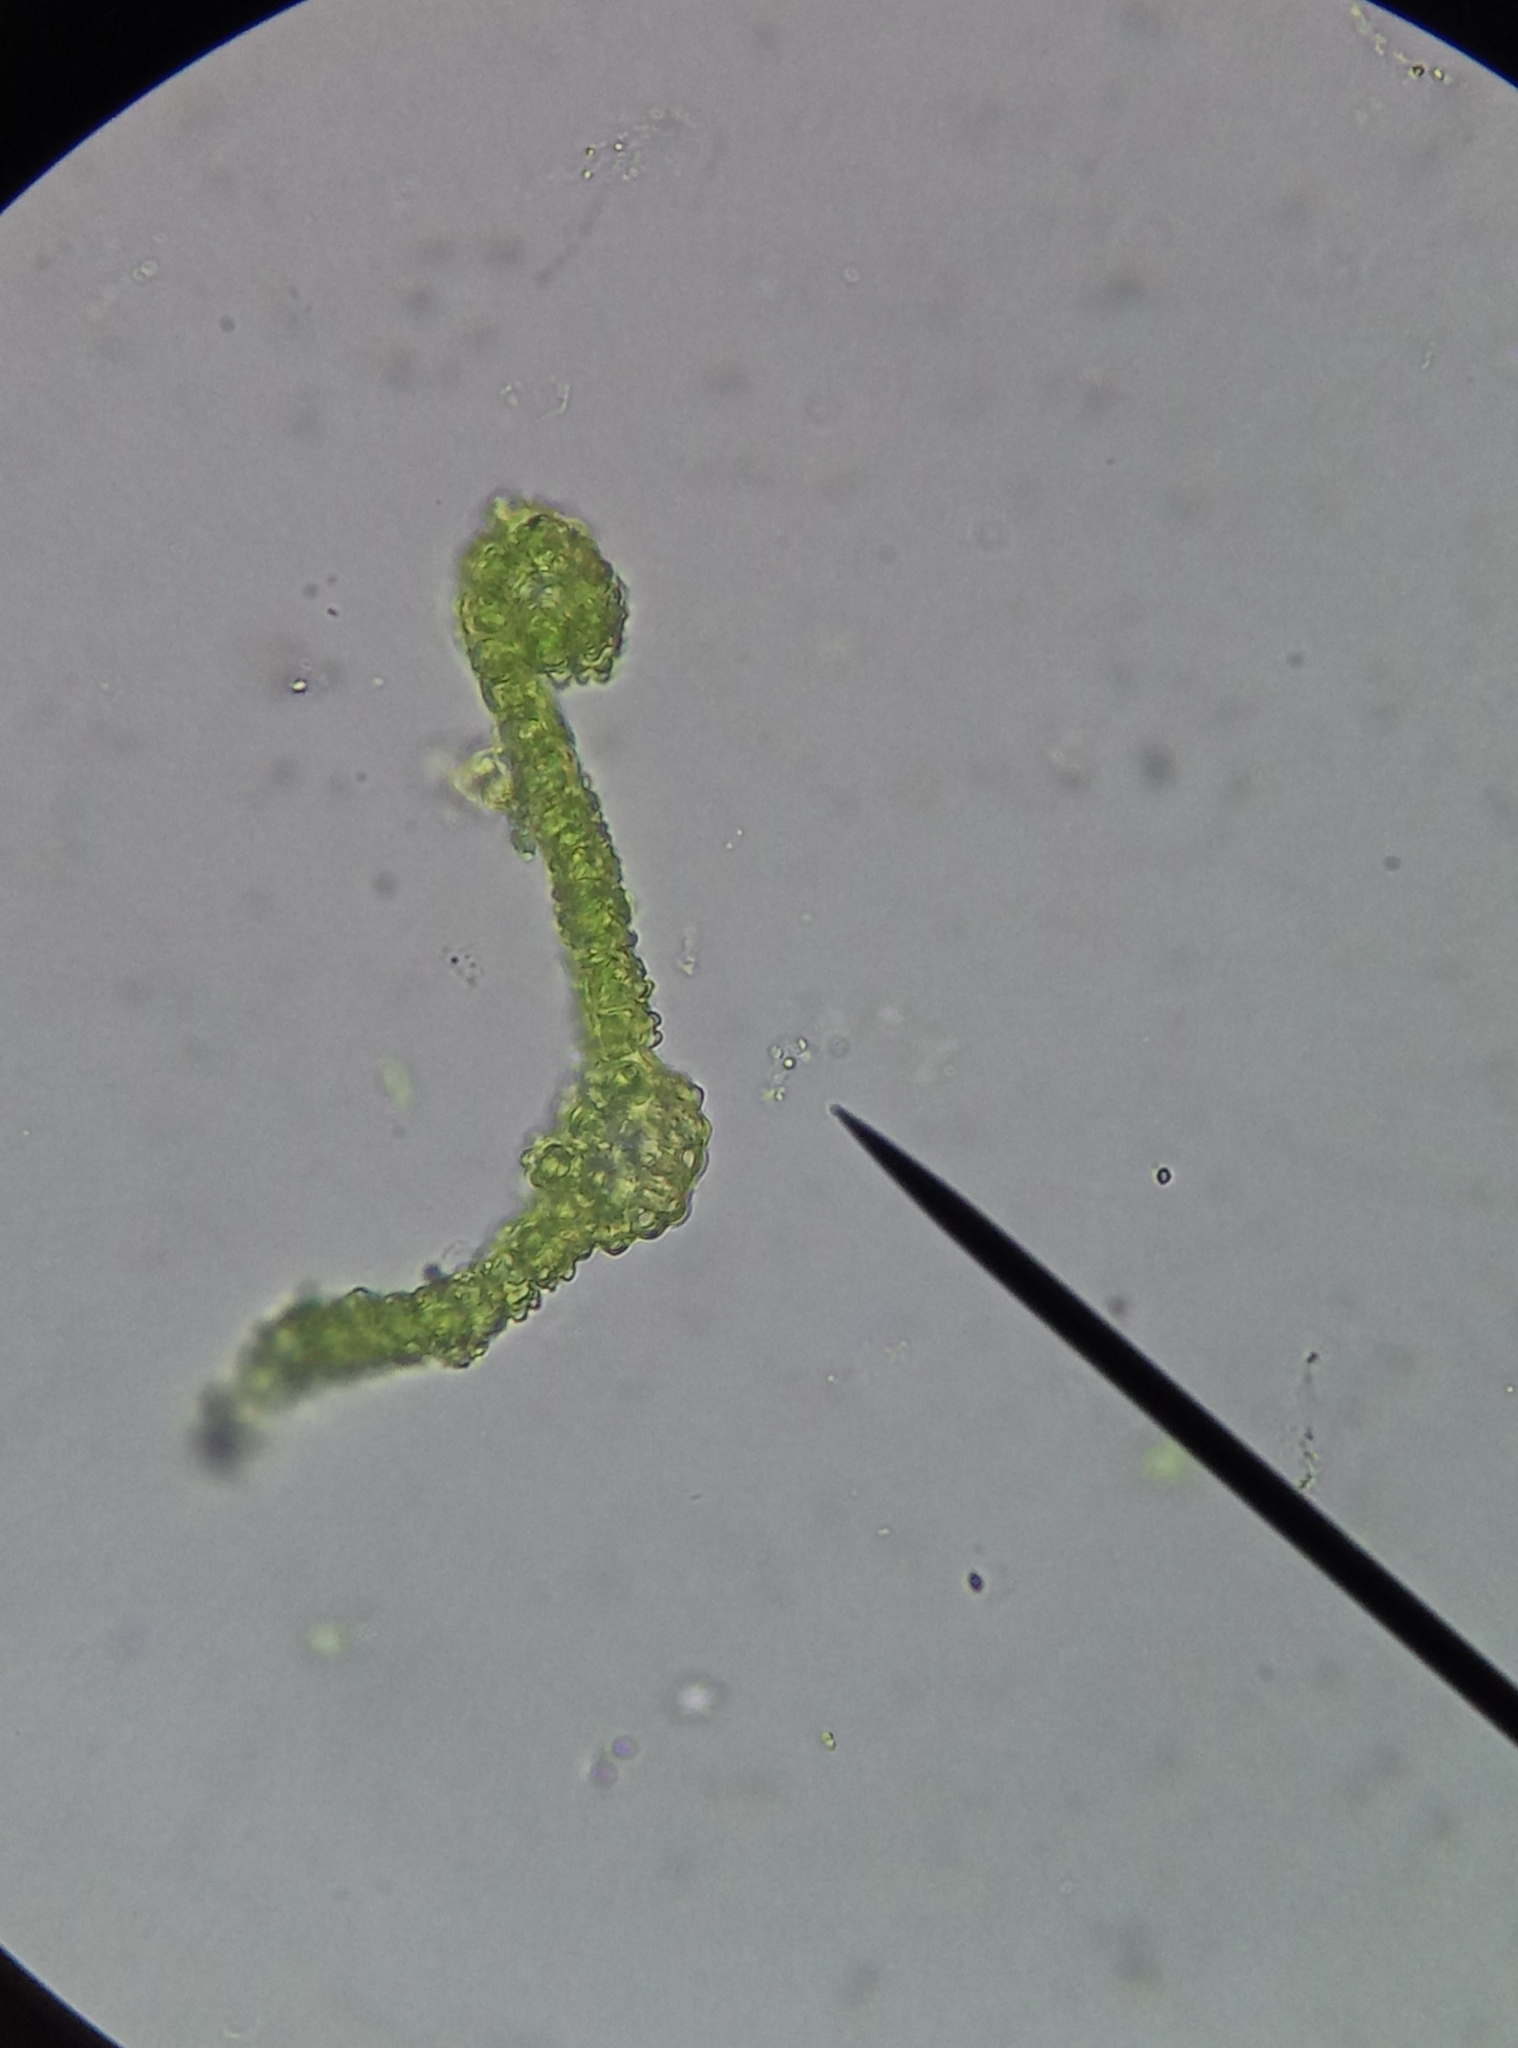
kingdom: Plantae
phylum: Bryophyta
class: Bryopsida
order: Pottiales
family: Pottiaceae
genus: Pseudocrossidium
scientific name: Pseudocrossidium hornschuchianum
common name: Hornschuch's beard-moss
